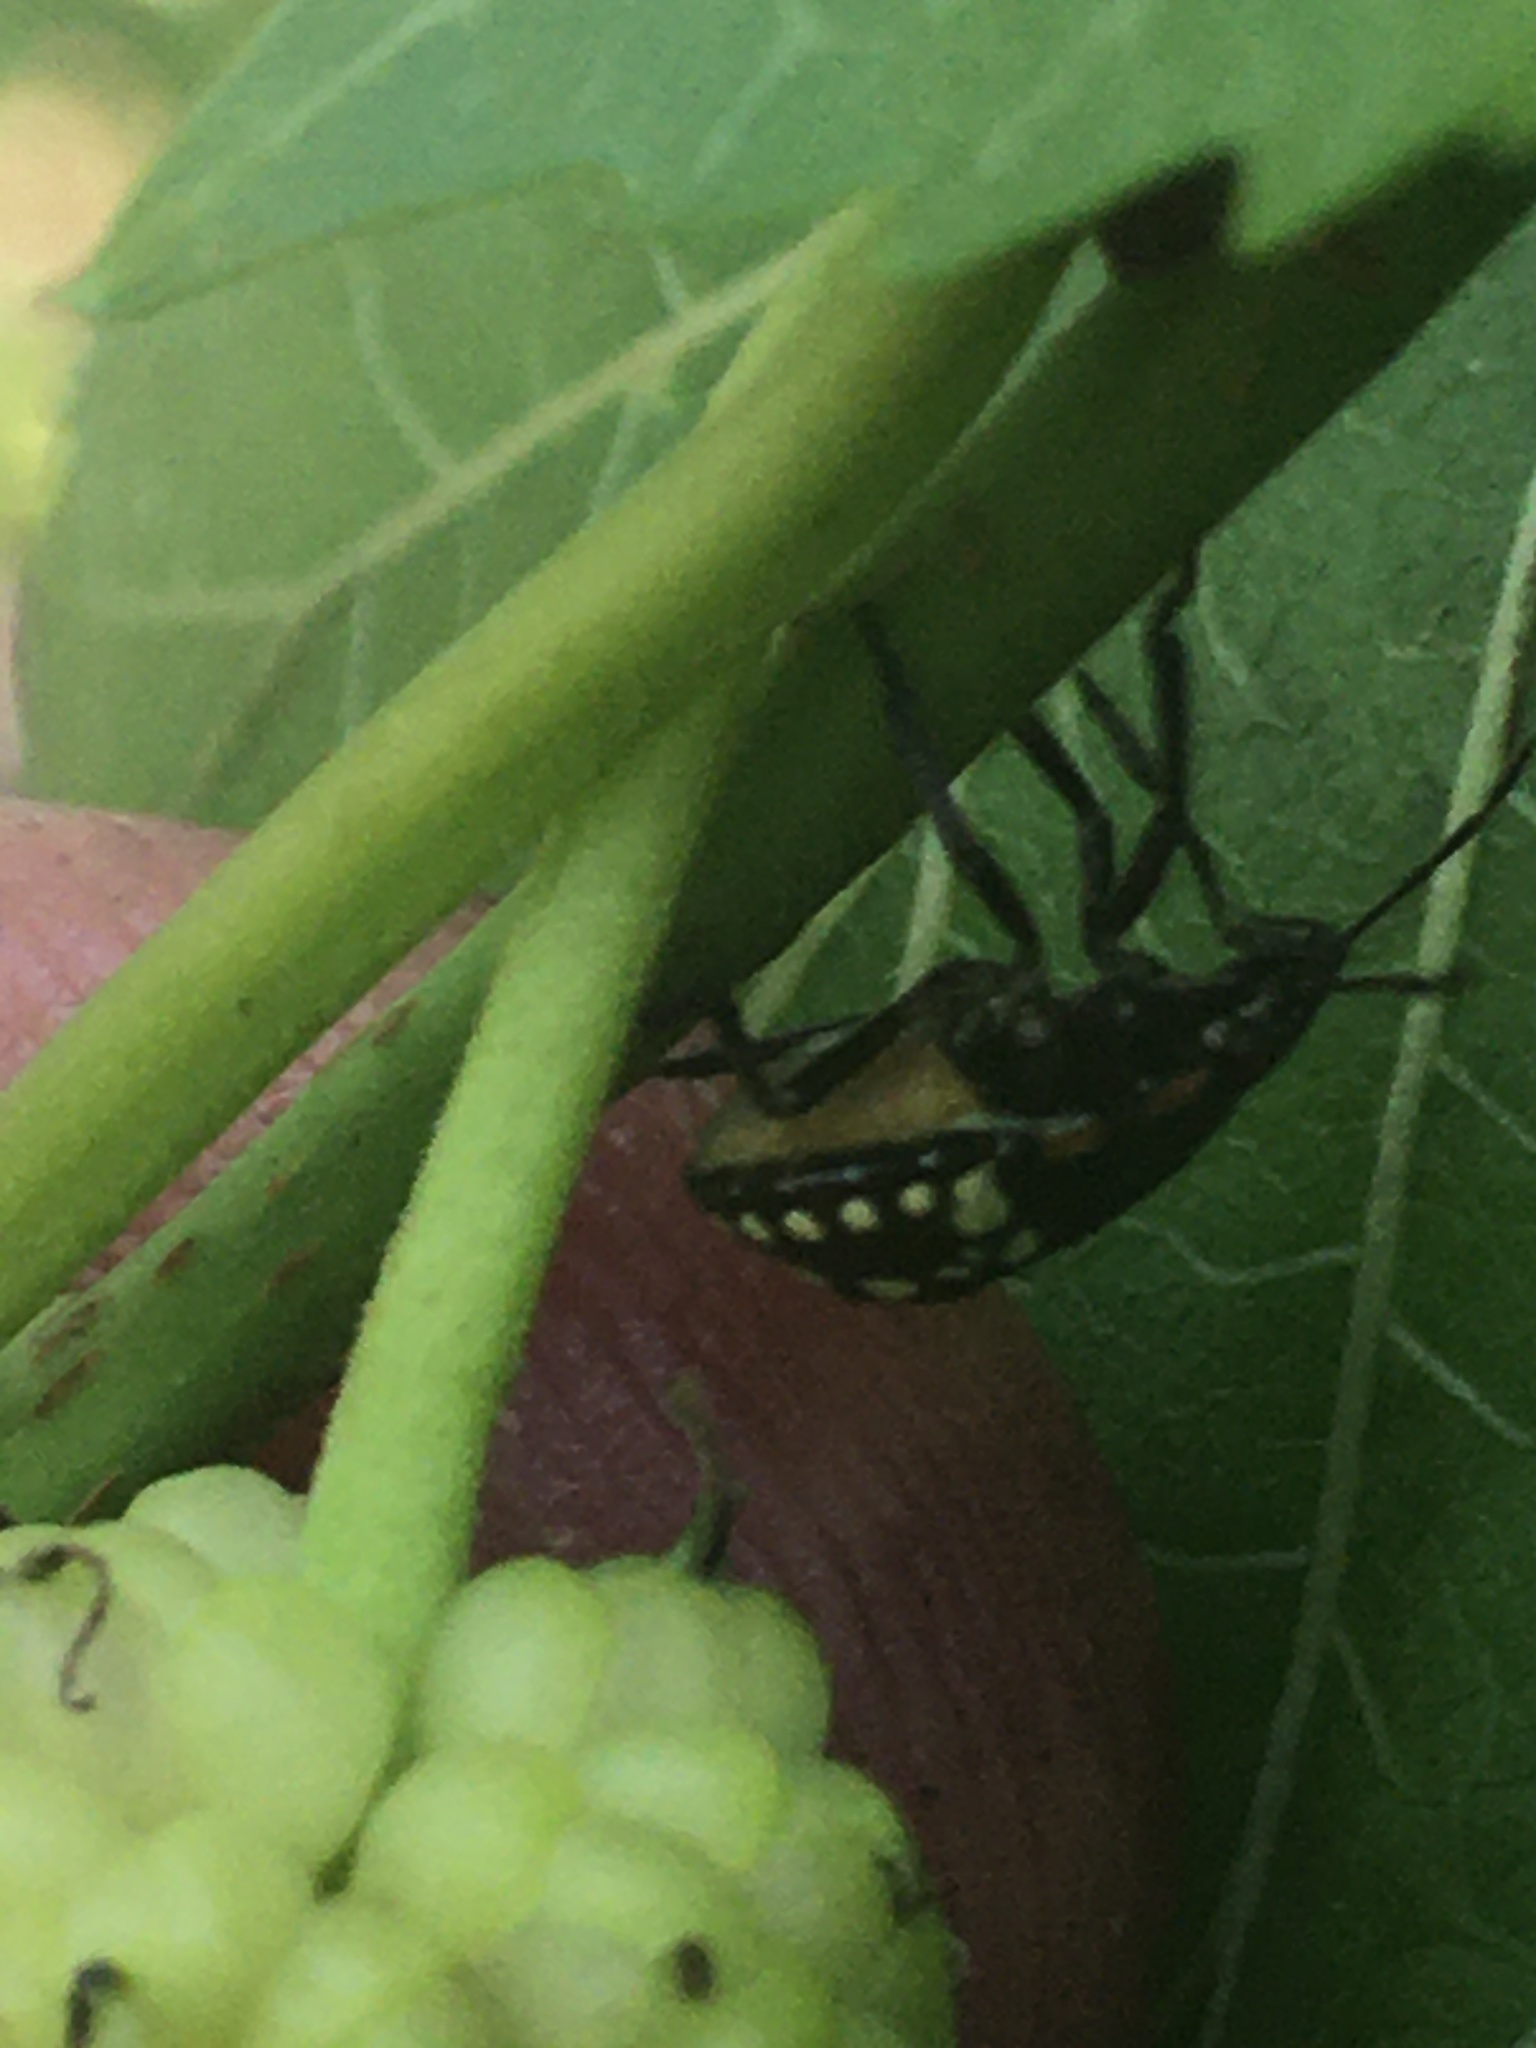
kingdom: Animalia
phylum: Arthropoda
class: Insecta
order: Hemiptera
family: Pentatomidae
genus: Nezara
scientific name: Nezara viridula
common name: Southern green stink bug
